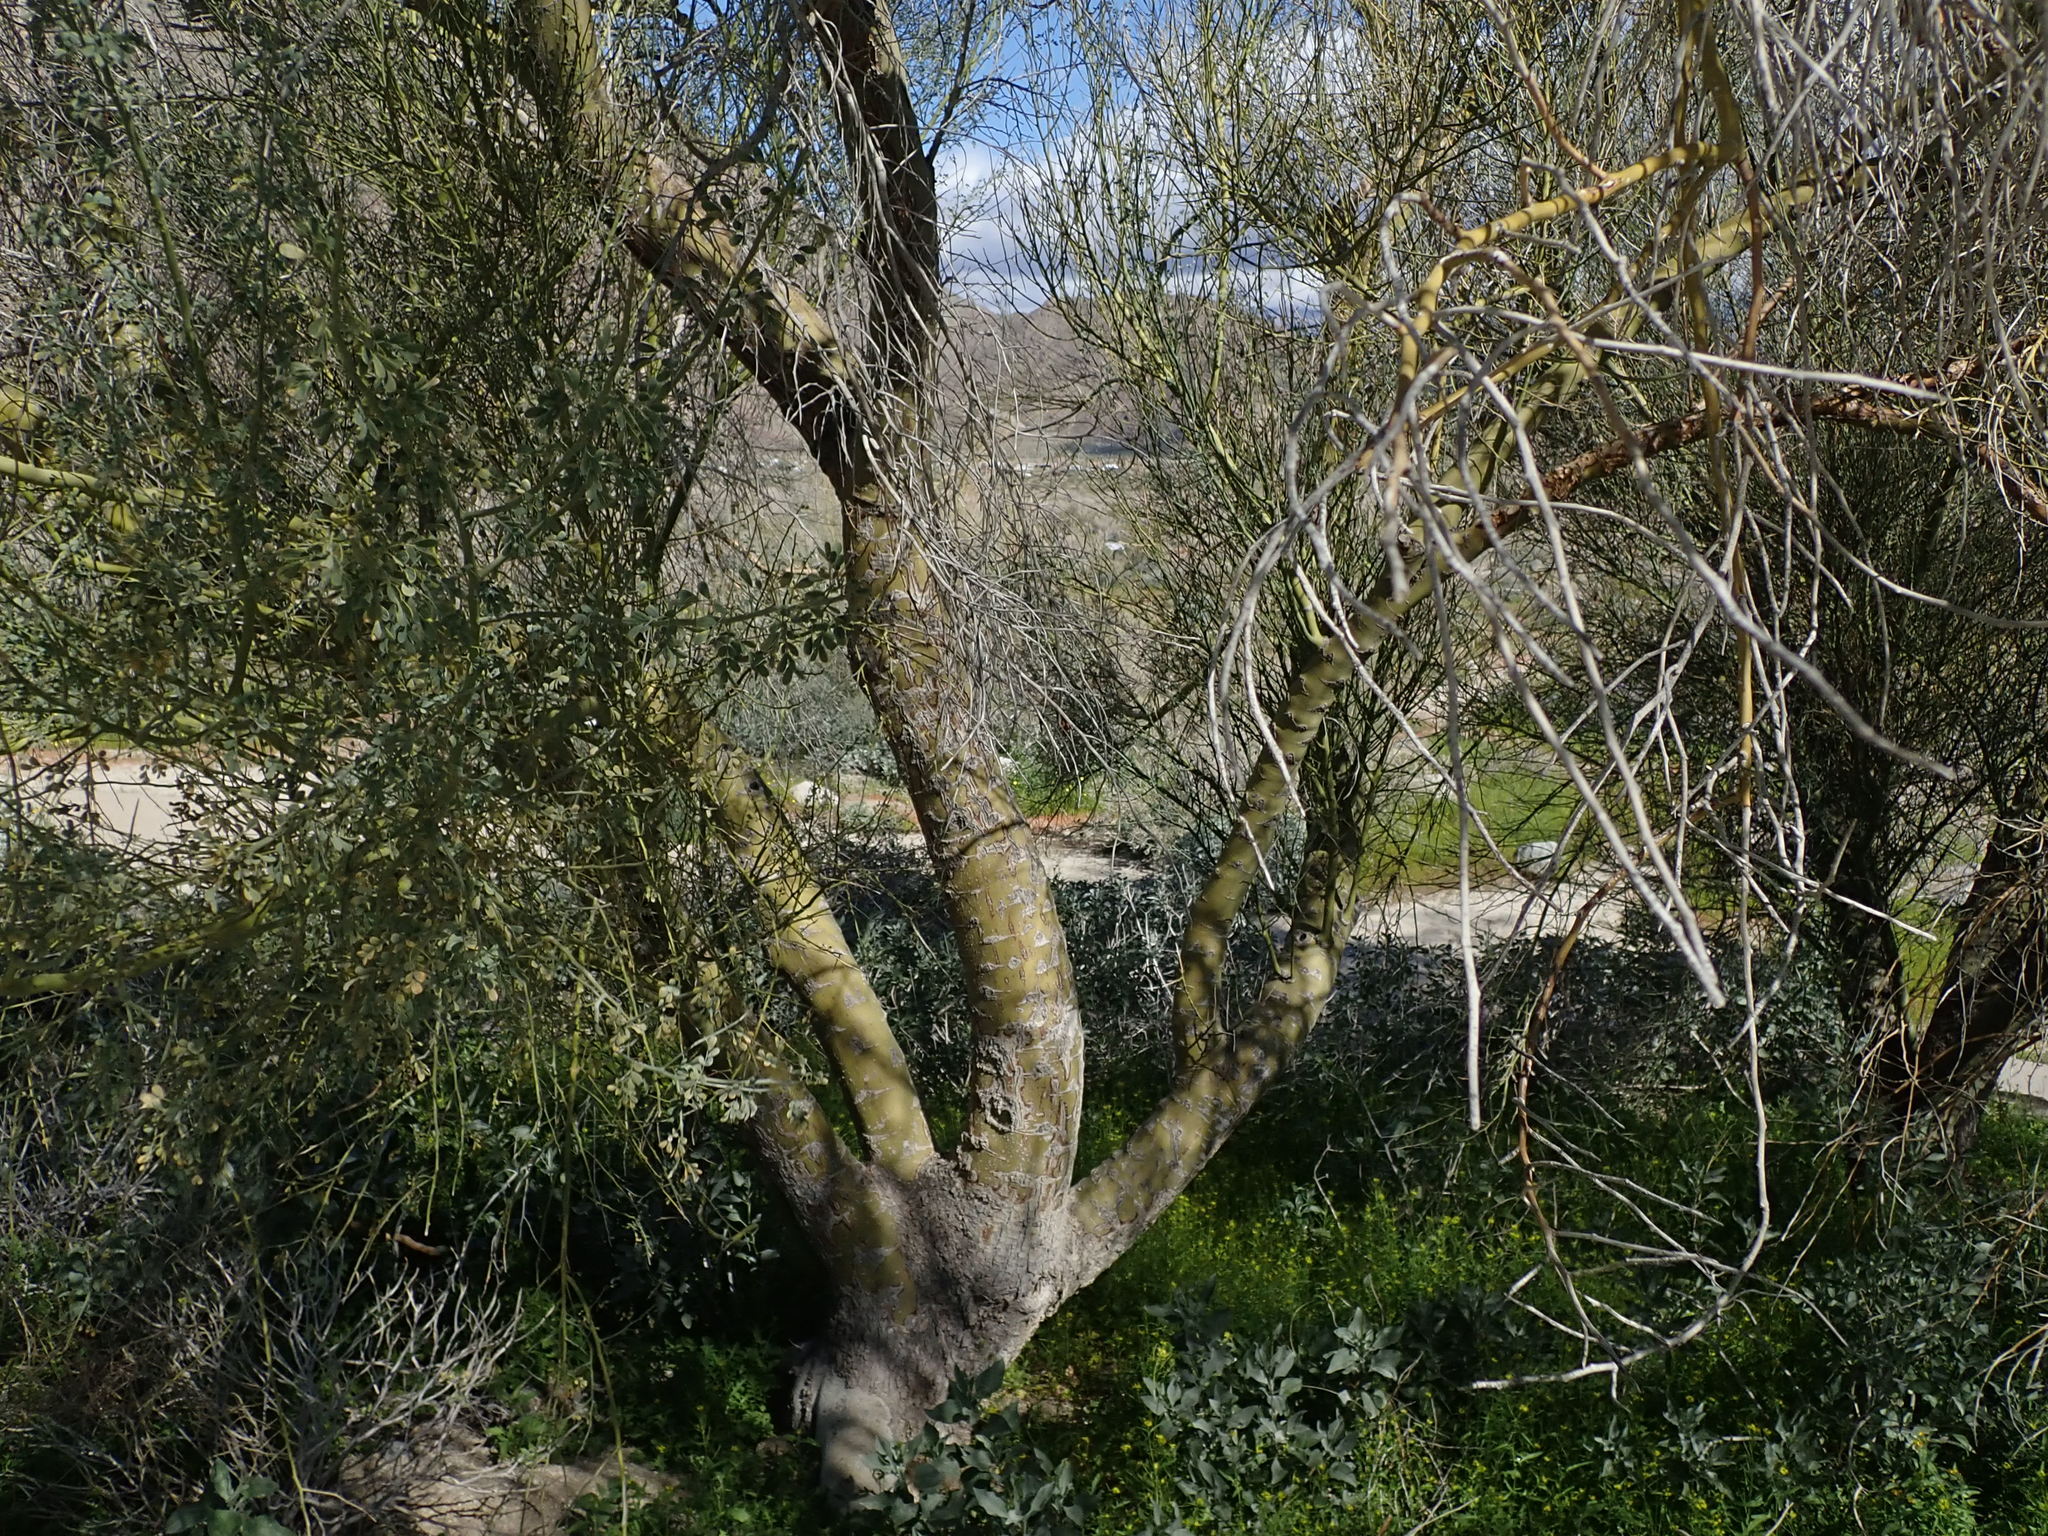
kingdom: Plantae
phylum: Tracheophyta
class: Magnoliopsida
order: Fabales
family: Fabaceae
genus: Parkinsonia
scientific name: Parkinsonia florida
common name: Blue paloverde
